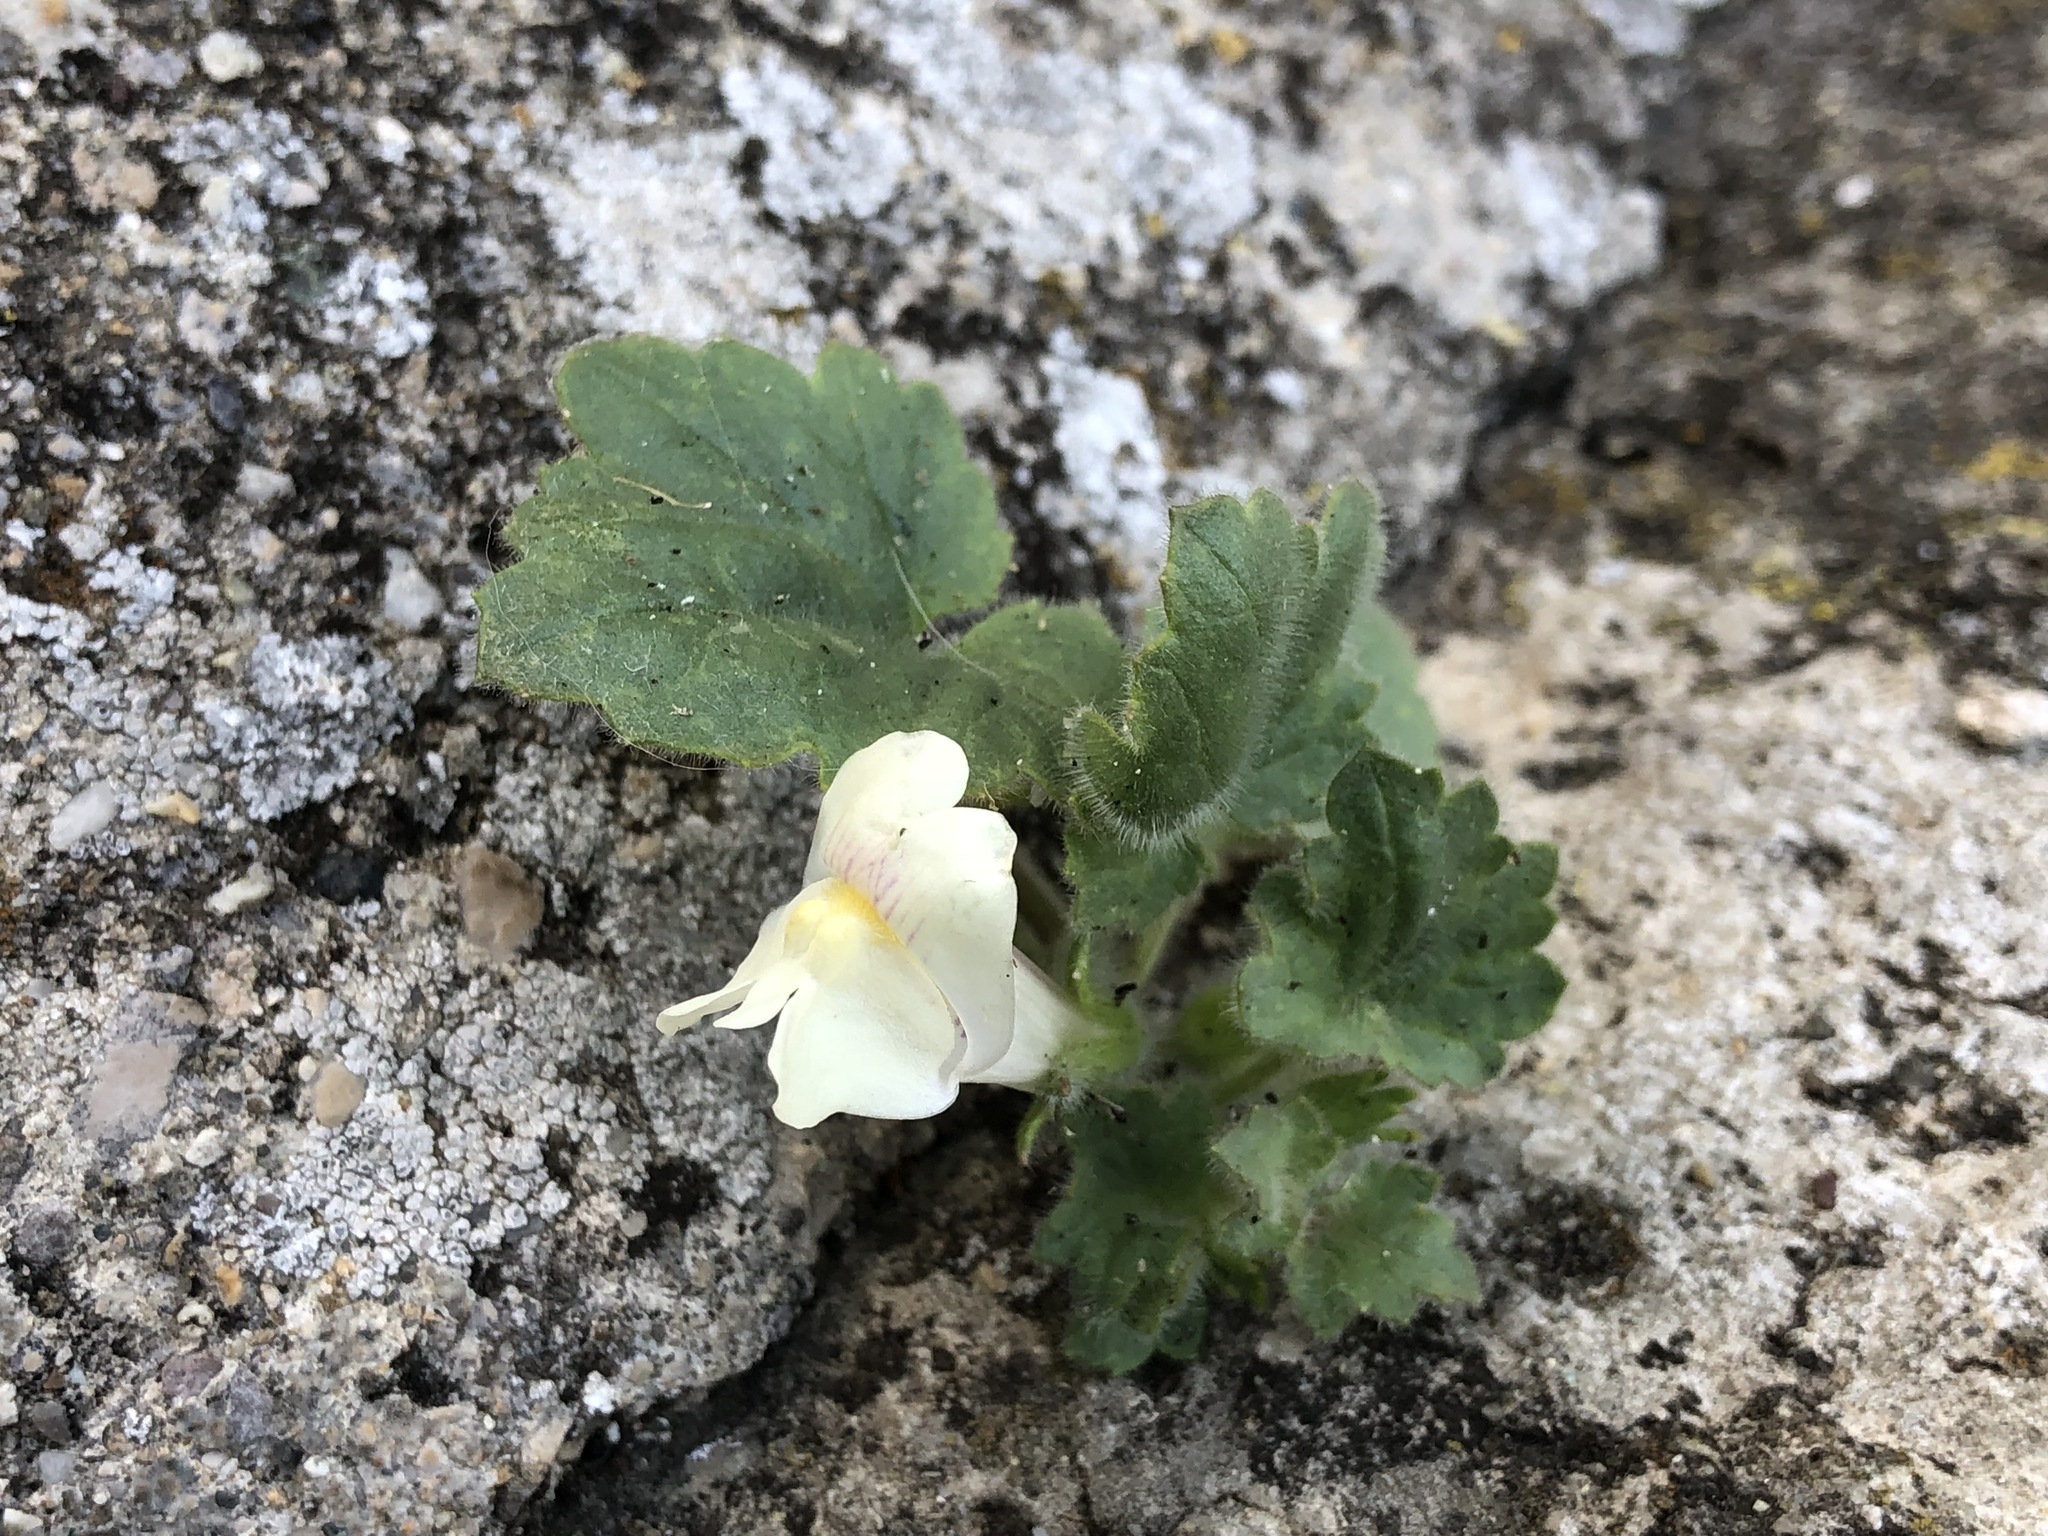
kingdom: Plantae
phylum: Tracheophyta
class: Magnoliopsida
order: Lamiales
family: Plantaginaceae
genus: Asarina
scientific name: Asarina procumbens
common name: Trailing snapdragon
